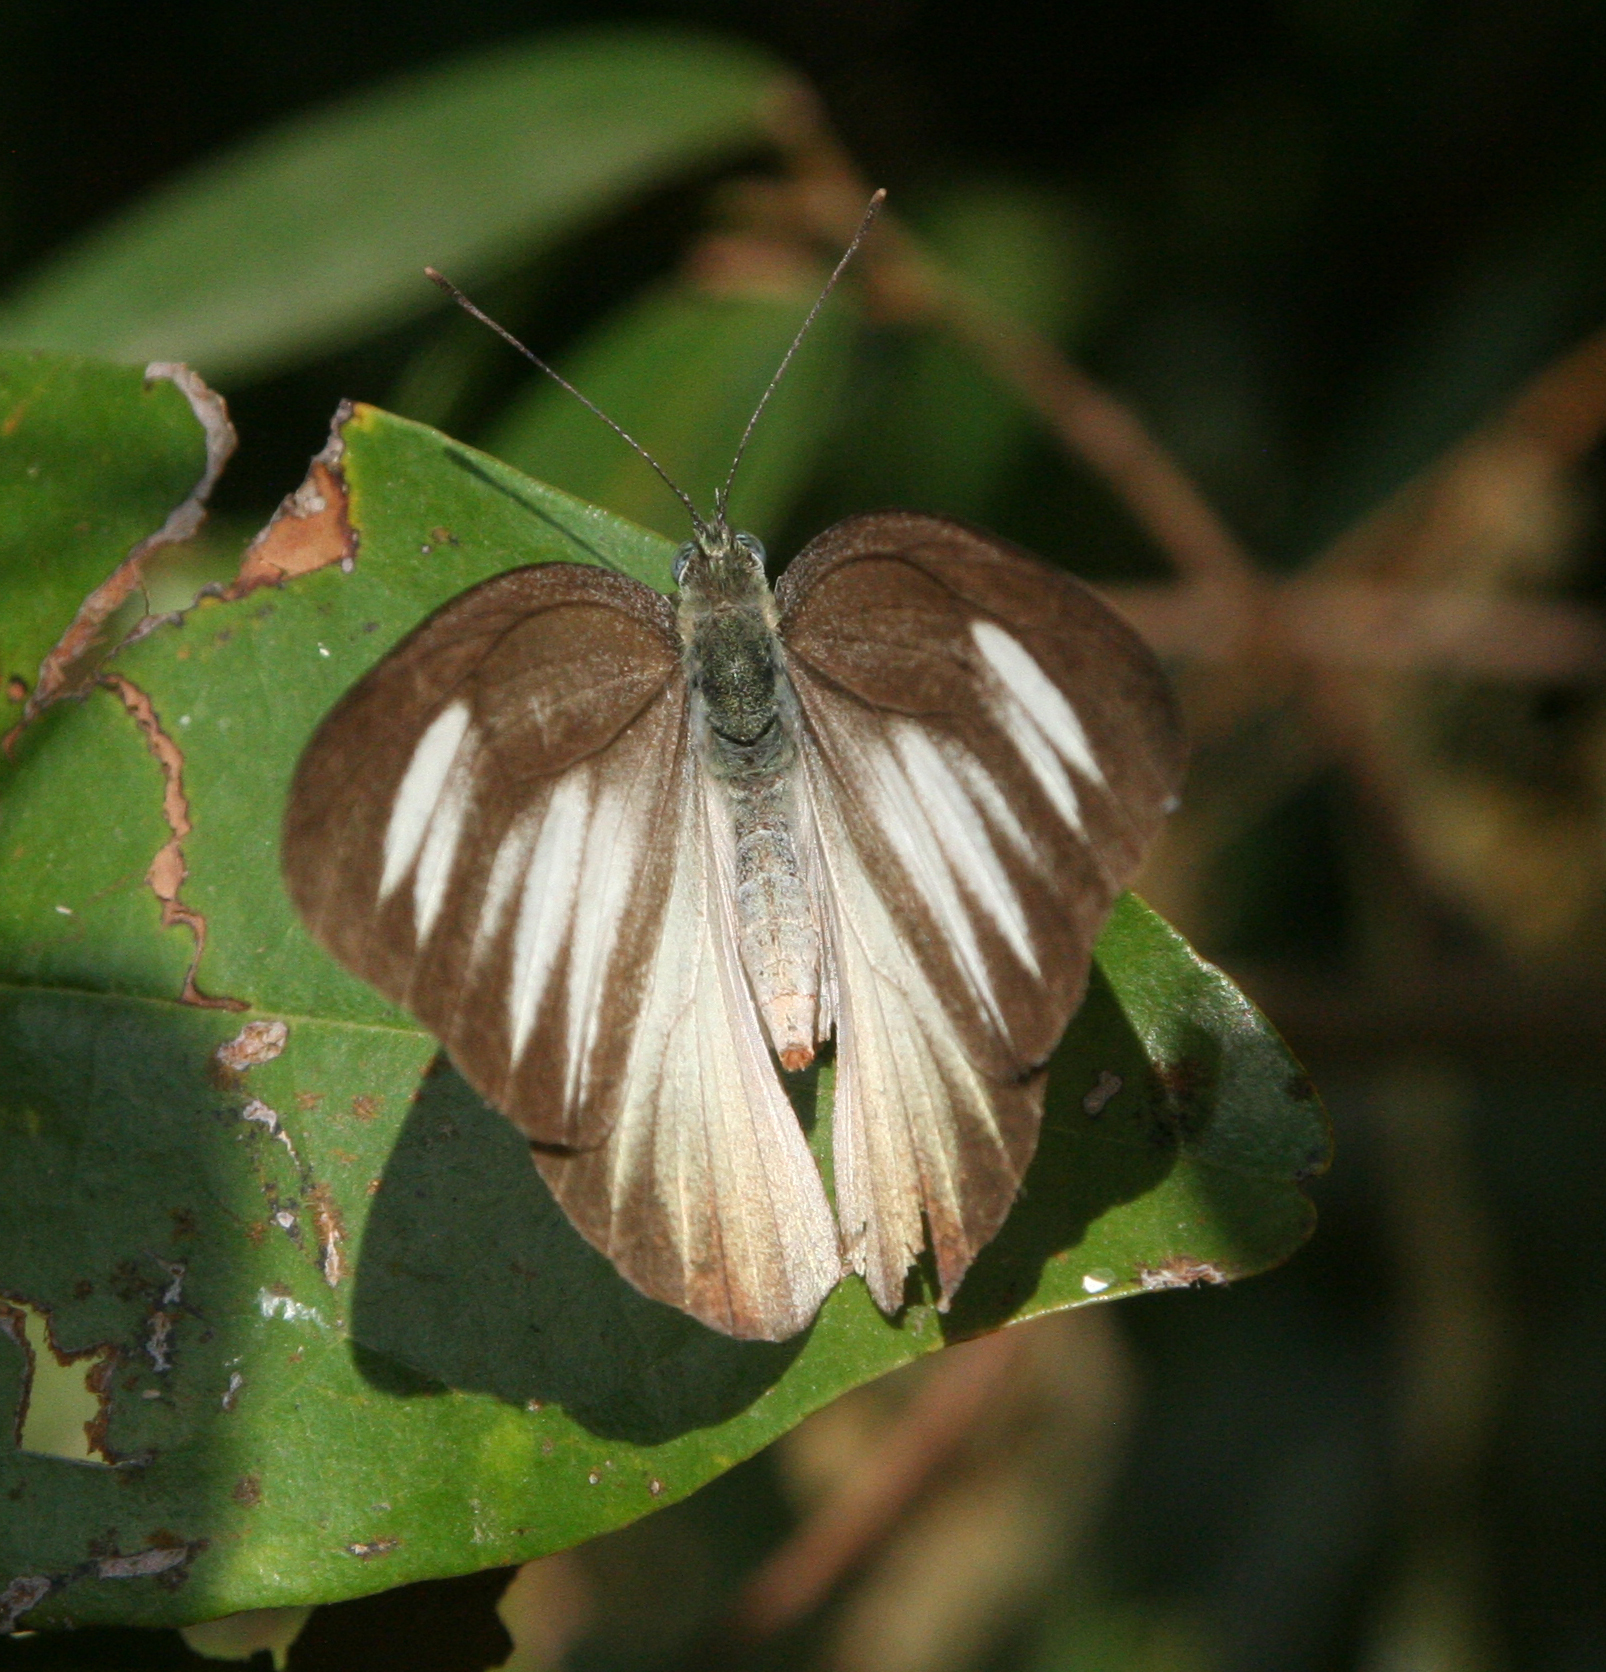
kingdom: Animalia
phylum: Arthropoda
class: Insecta
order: Lepidoptera
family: Pieridae
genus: Appias
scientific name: Appias lyncida
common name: Chocolate albatross
